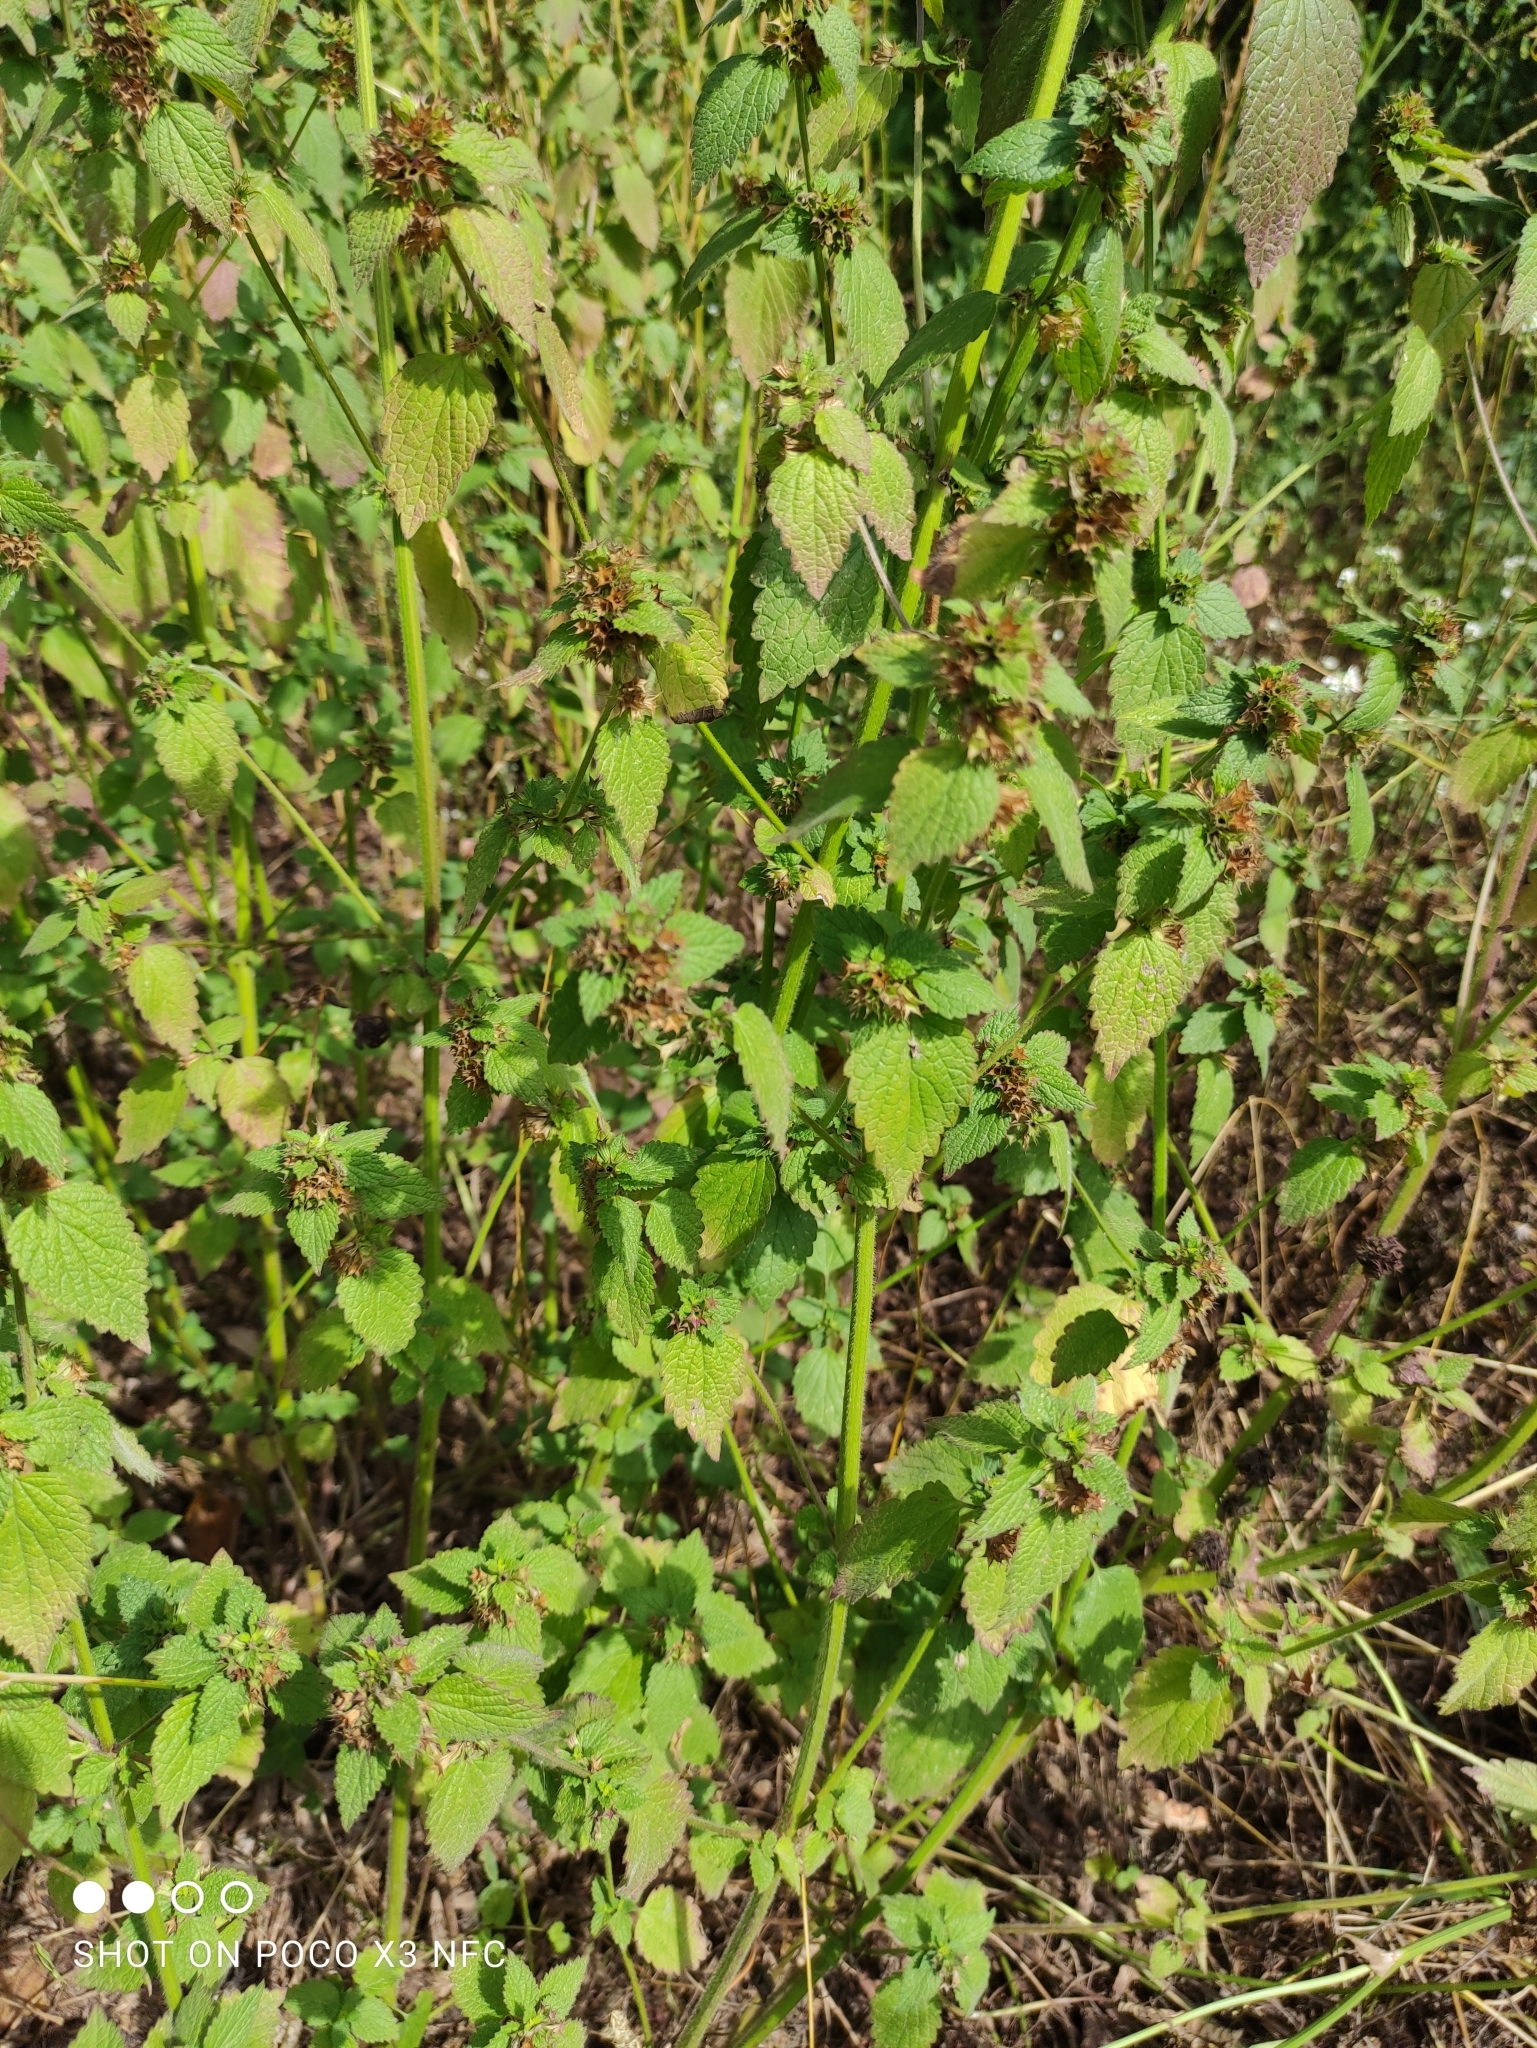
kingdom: Plantae
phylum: Tracheophyta
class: Magnoliopsida
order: Lamiales
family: Lamiaceae
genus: Ballota
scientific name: Ballota nigra
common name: Black horehound
